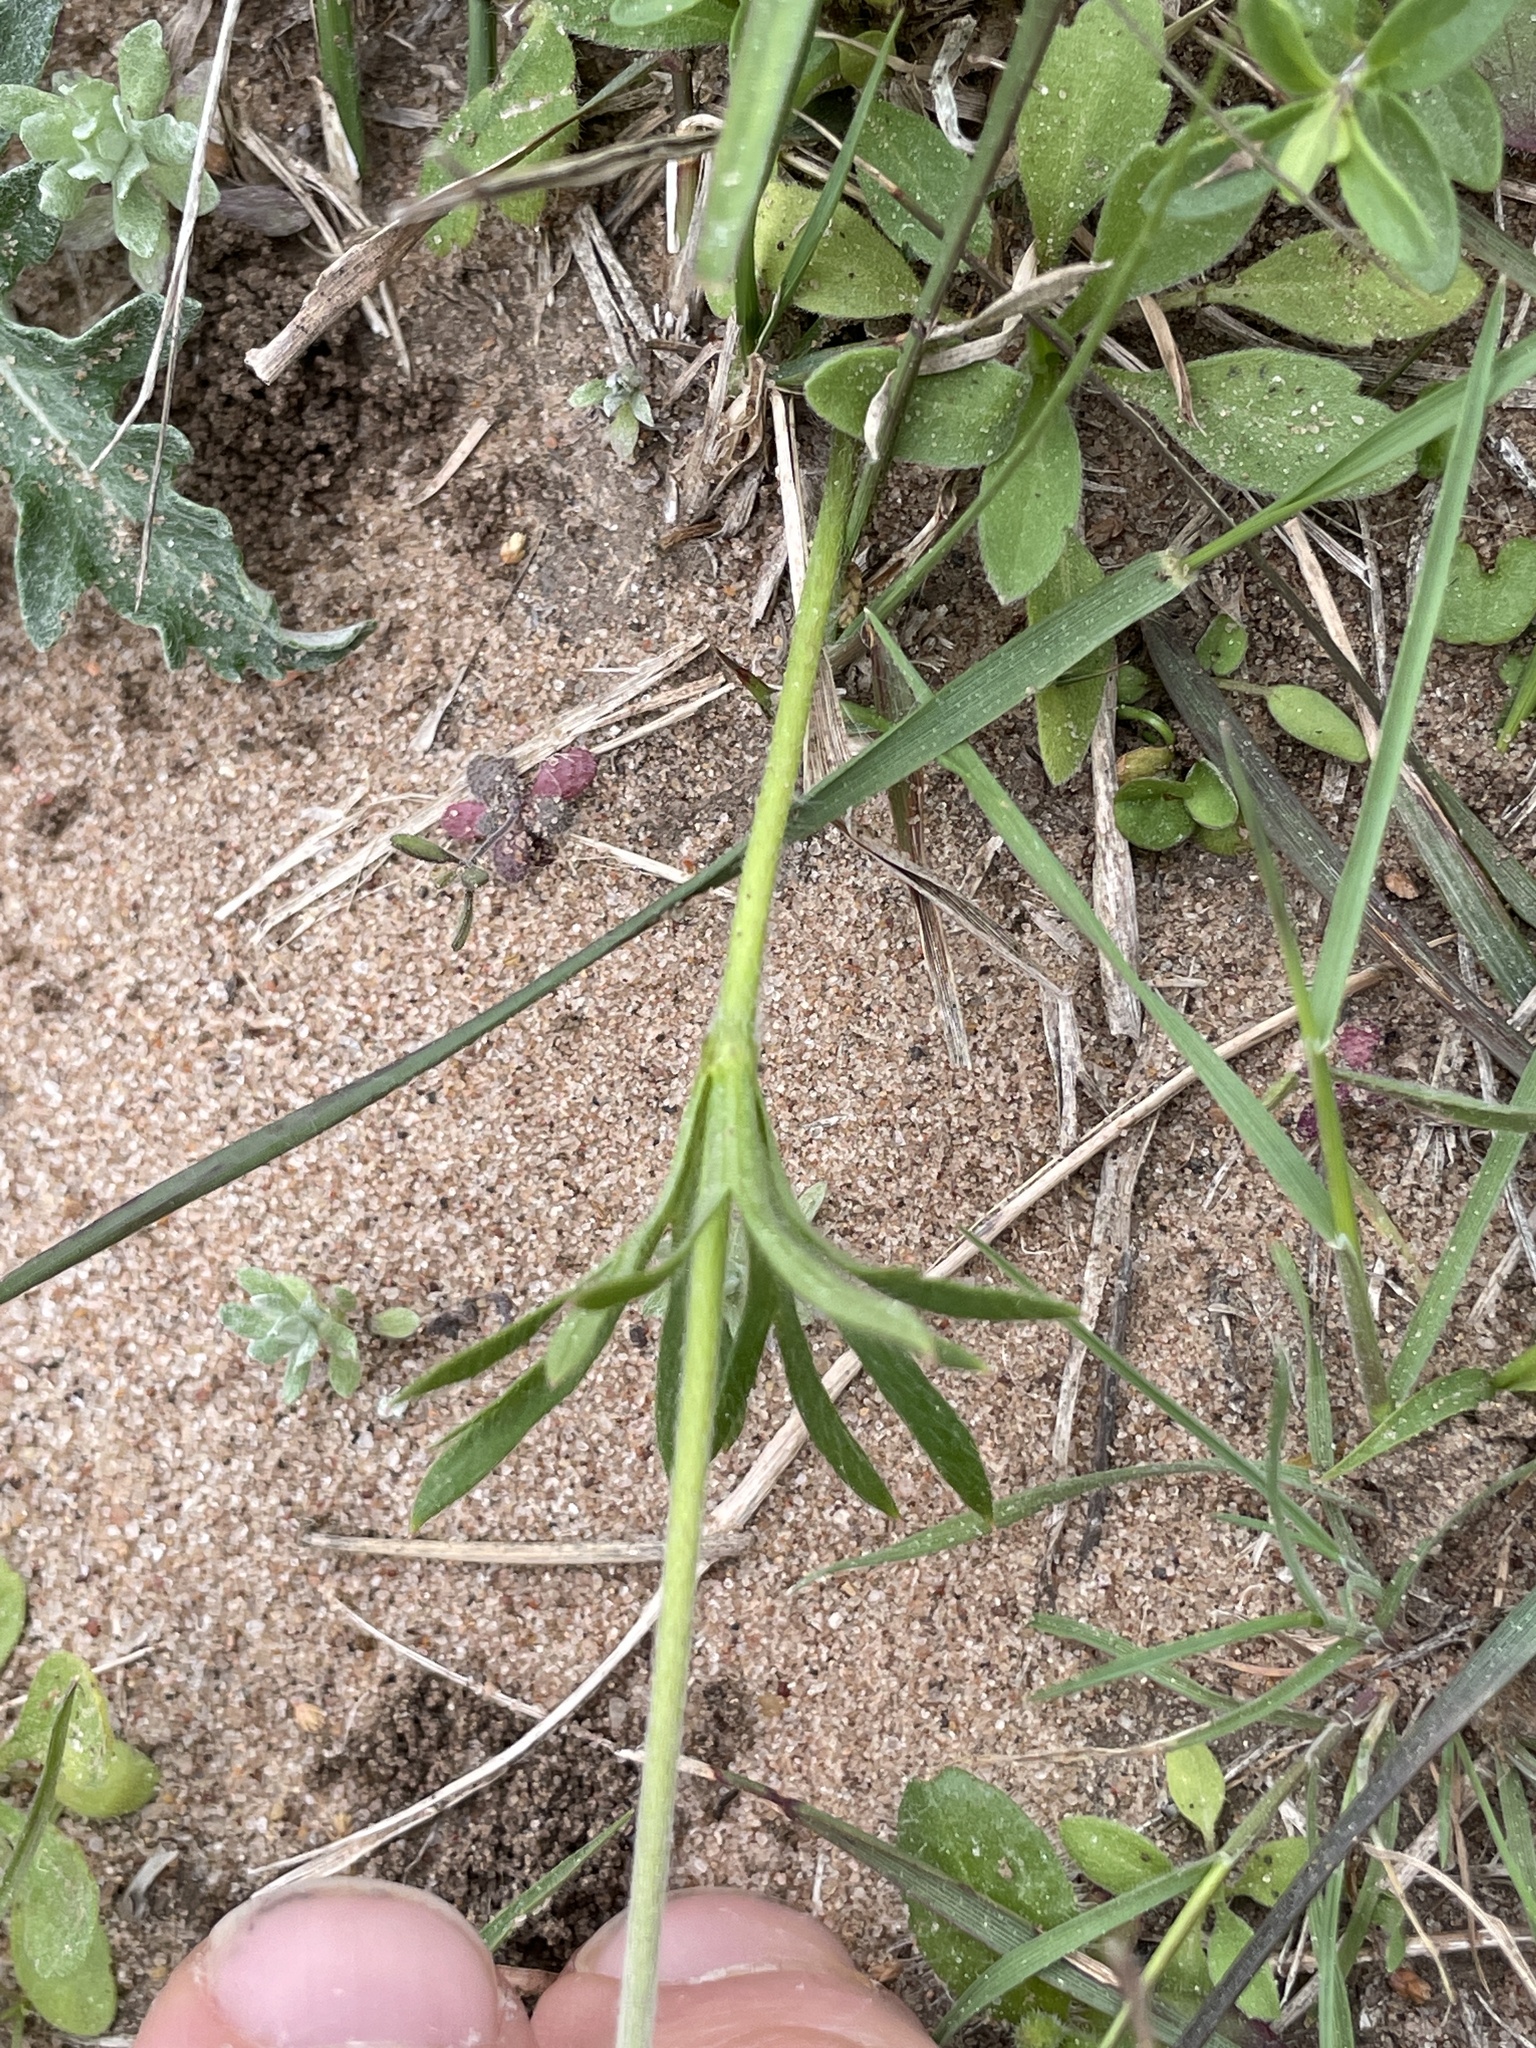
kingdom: Plantae
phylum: Tracheophyta
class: Magnoliopsida
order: Ranunculales
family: Ranunculaceae
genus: Anemone
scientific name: Anemone berlandieri
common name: Ten-petal anemone
